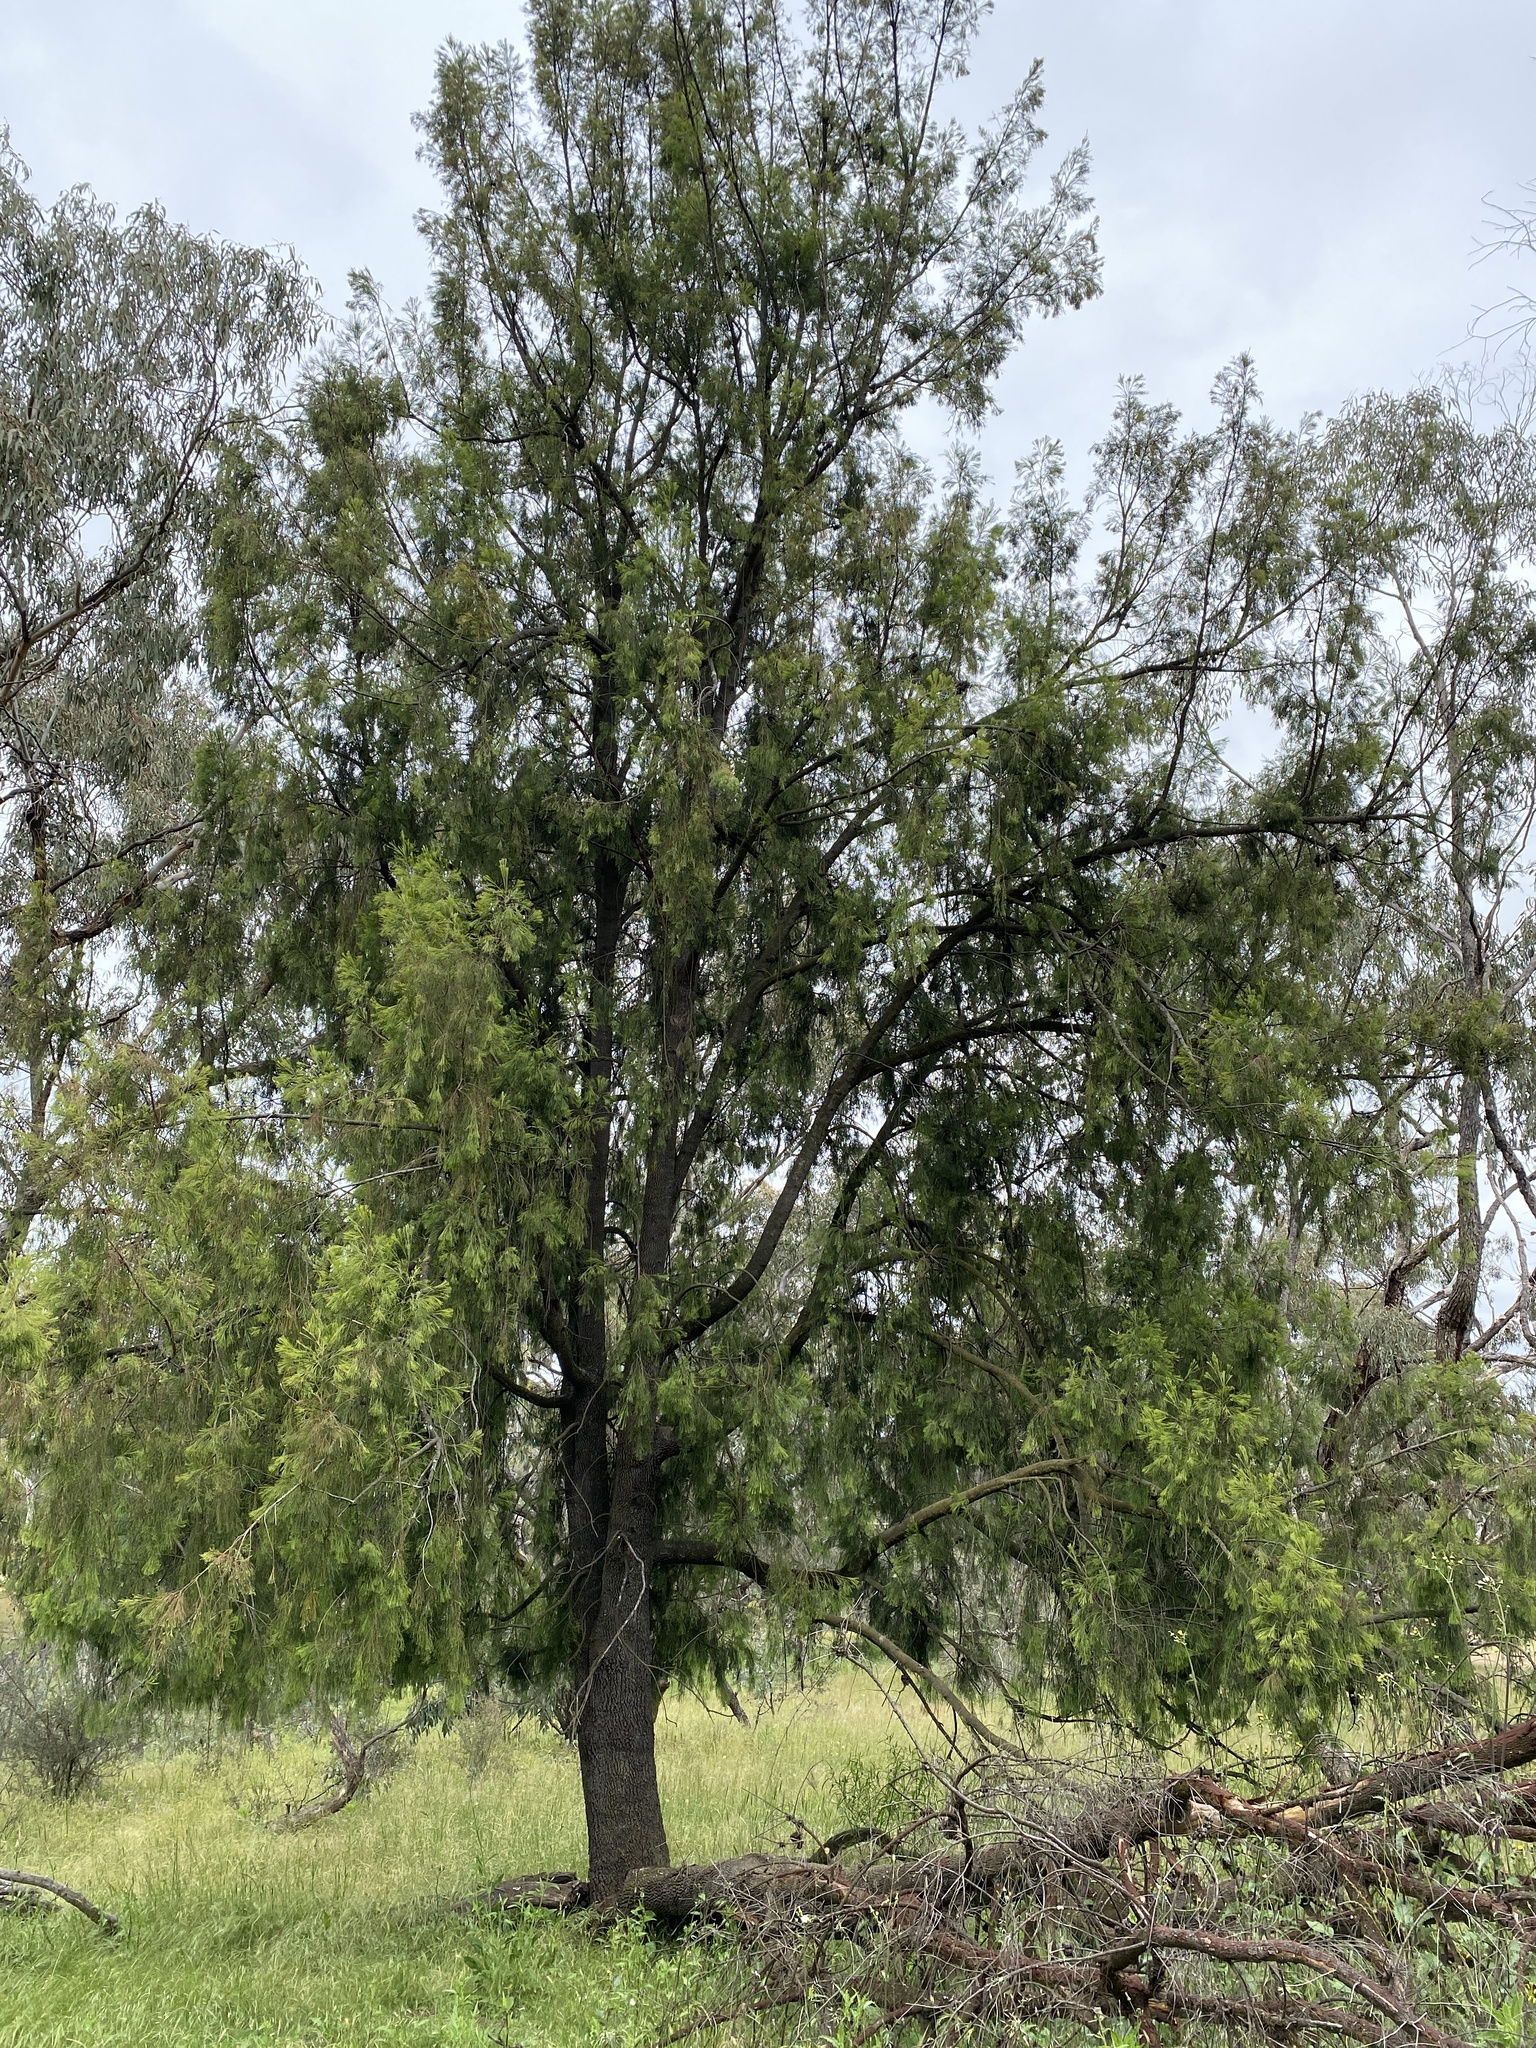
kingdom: Plantae
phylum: Tracheophyta
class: Magnoliopsida
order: Santalales
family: Santalaceae
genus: Exocarpos
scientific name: Exocarpos cupressiformis
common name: Cherry ballart
